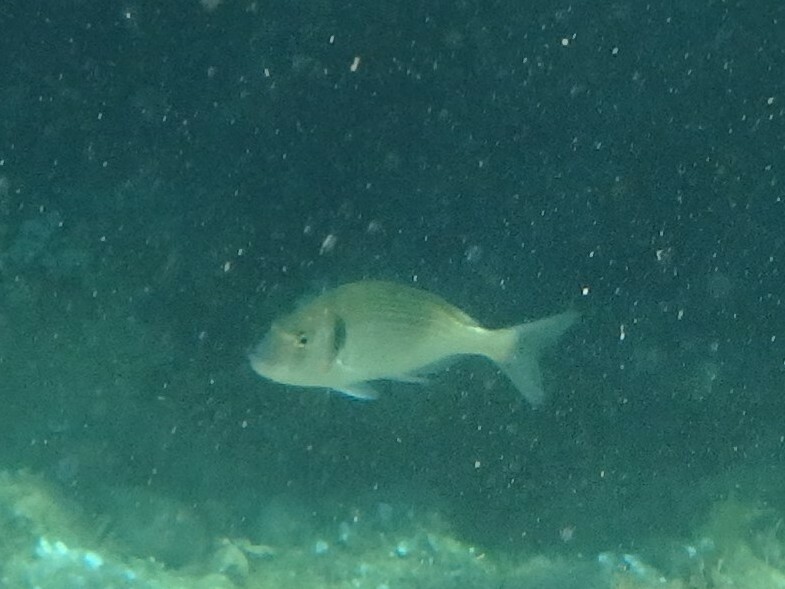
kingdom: Animalia
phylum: Chordata
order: Perciformes
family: Sparidae
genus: Sparus
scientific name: Sparus aurata
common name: Gilthead
